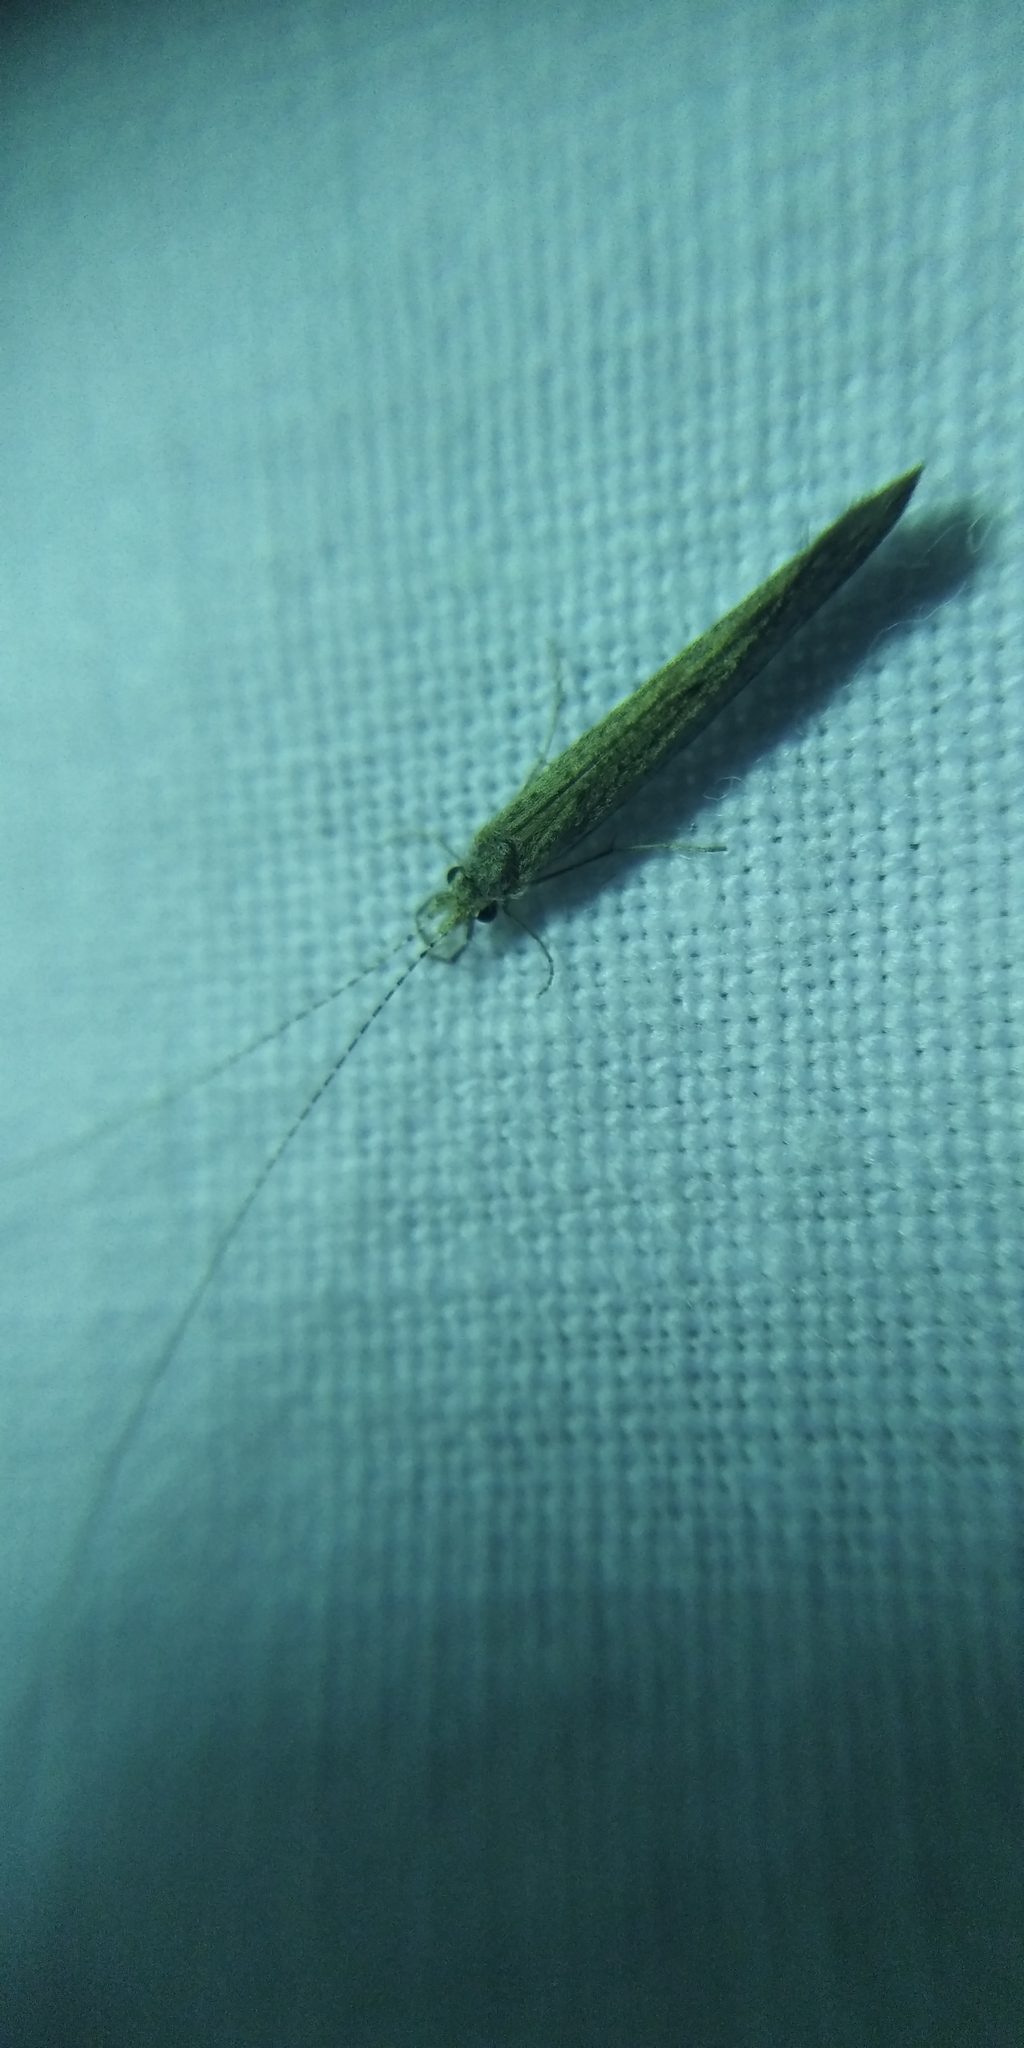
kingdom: Animalia
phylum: Arthropoda
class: Insecta
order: Trichoptera
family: Leptoceridae
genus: Leptocerus
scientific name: Leptocerus tineiformis
